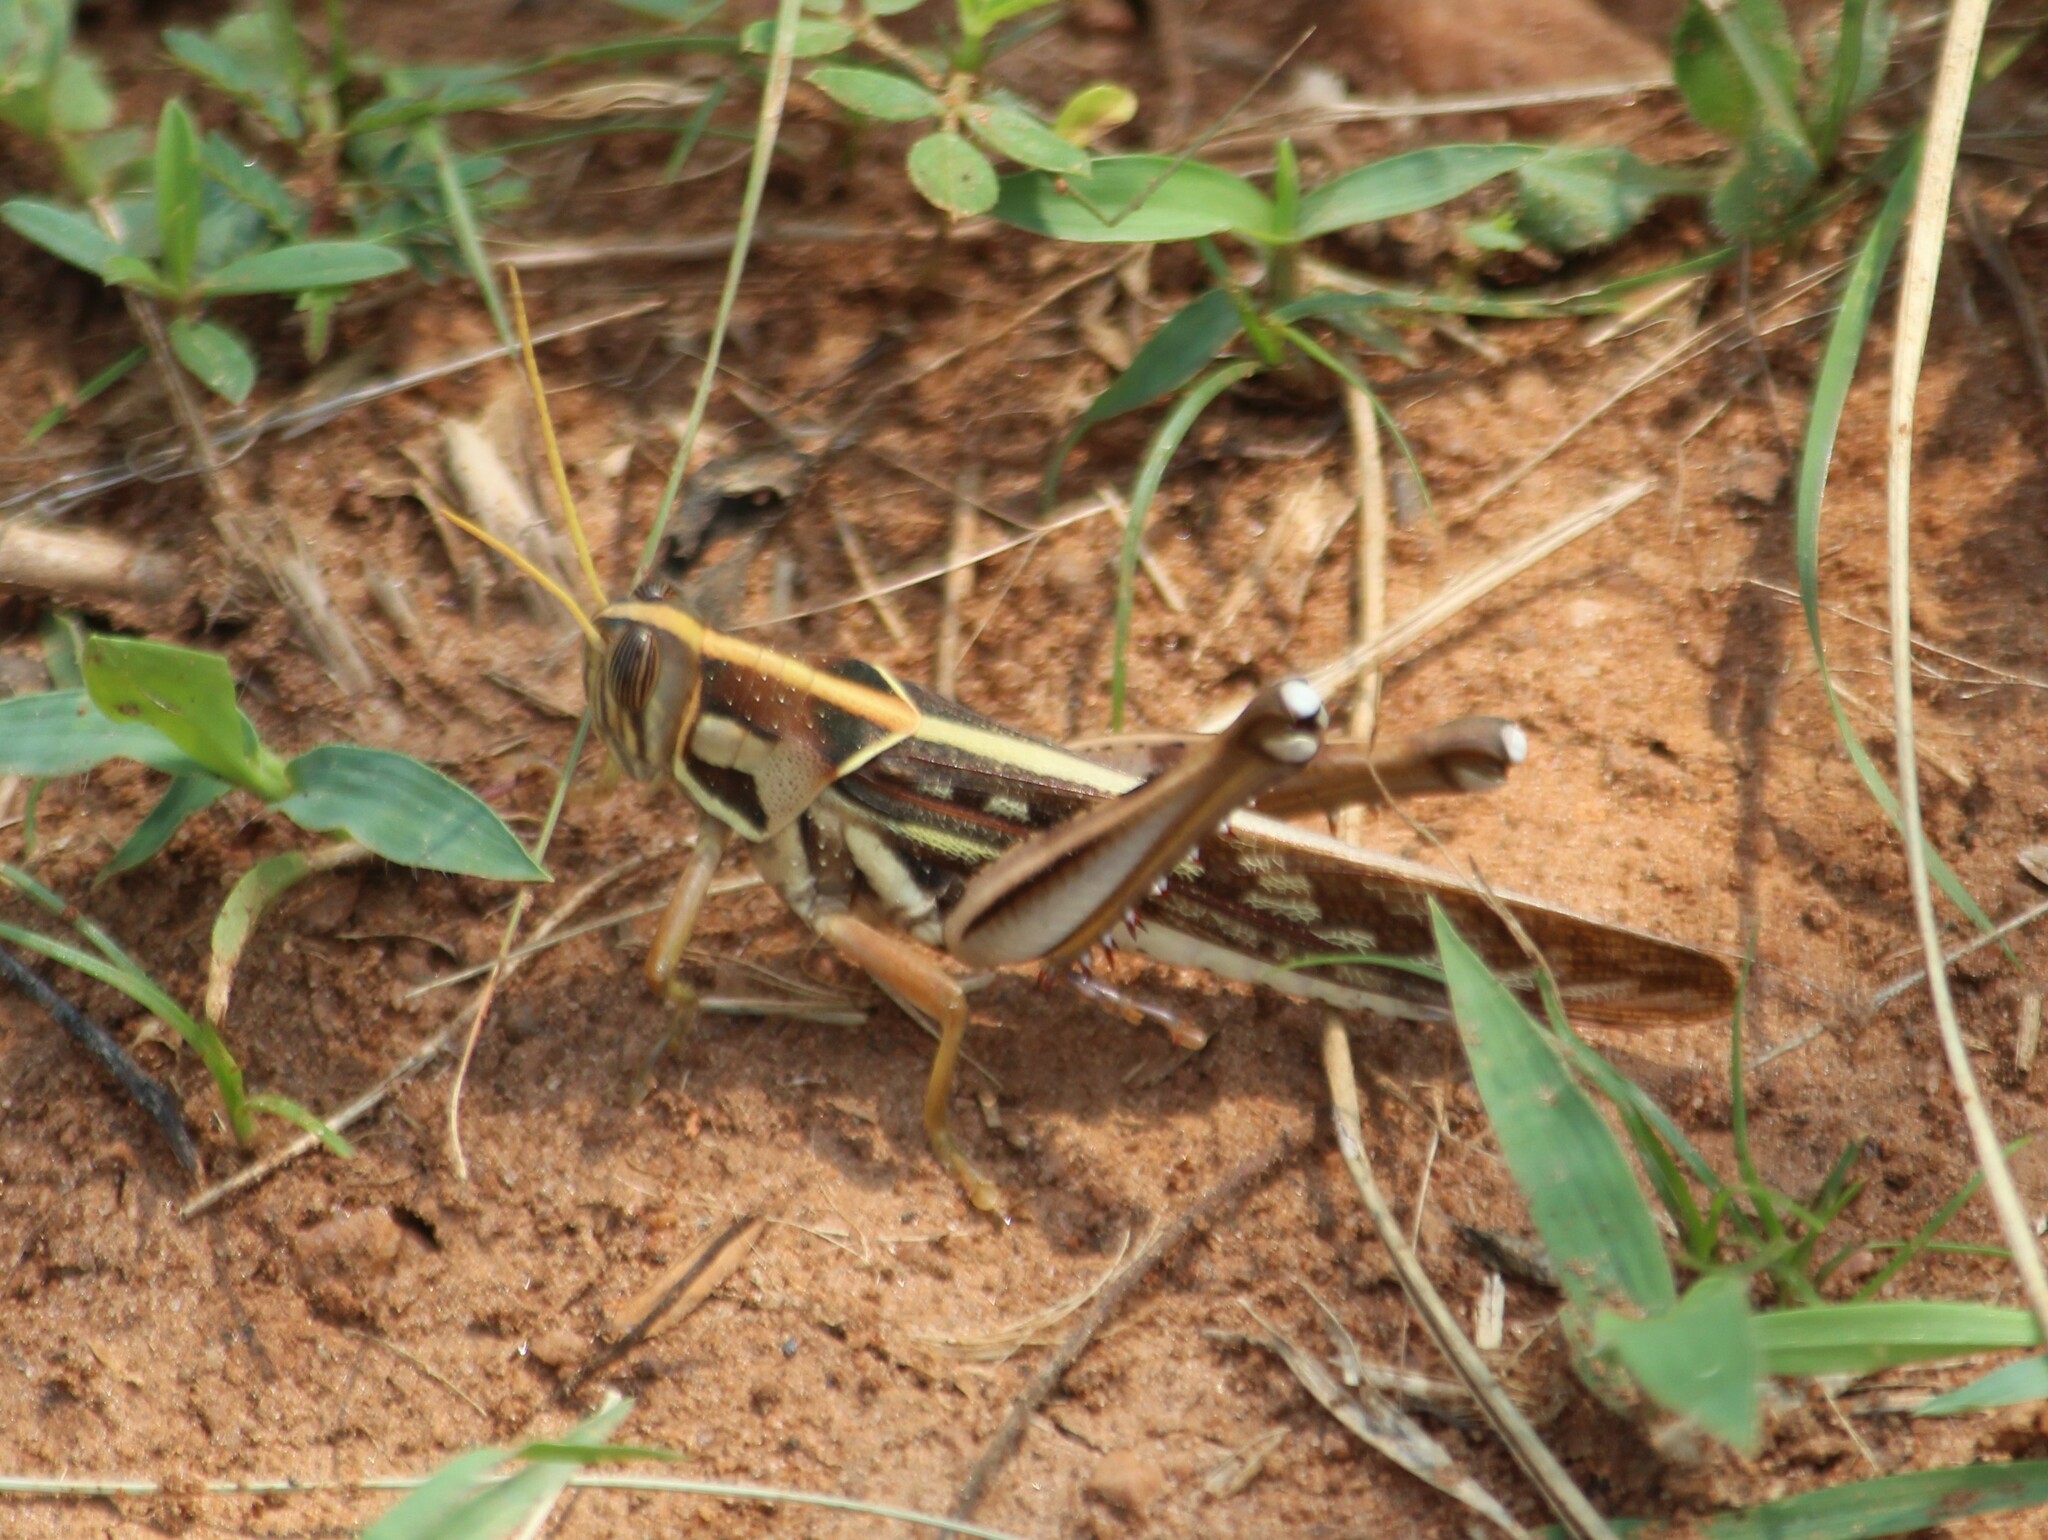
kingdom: Animalia
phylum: Arthropoda
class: Insecta
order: Orthoptera
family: Acrididae
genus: Cyrtacanthacris
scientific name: Cyrtacanthacris tatarica
